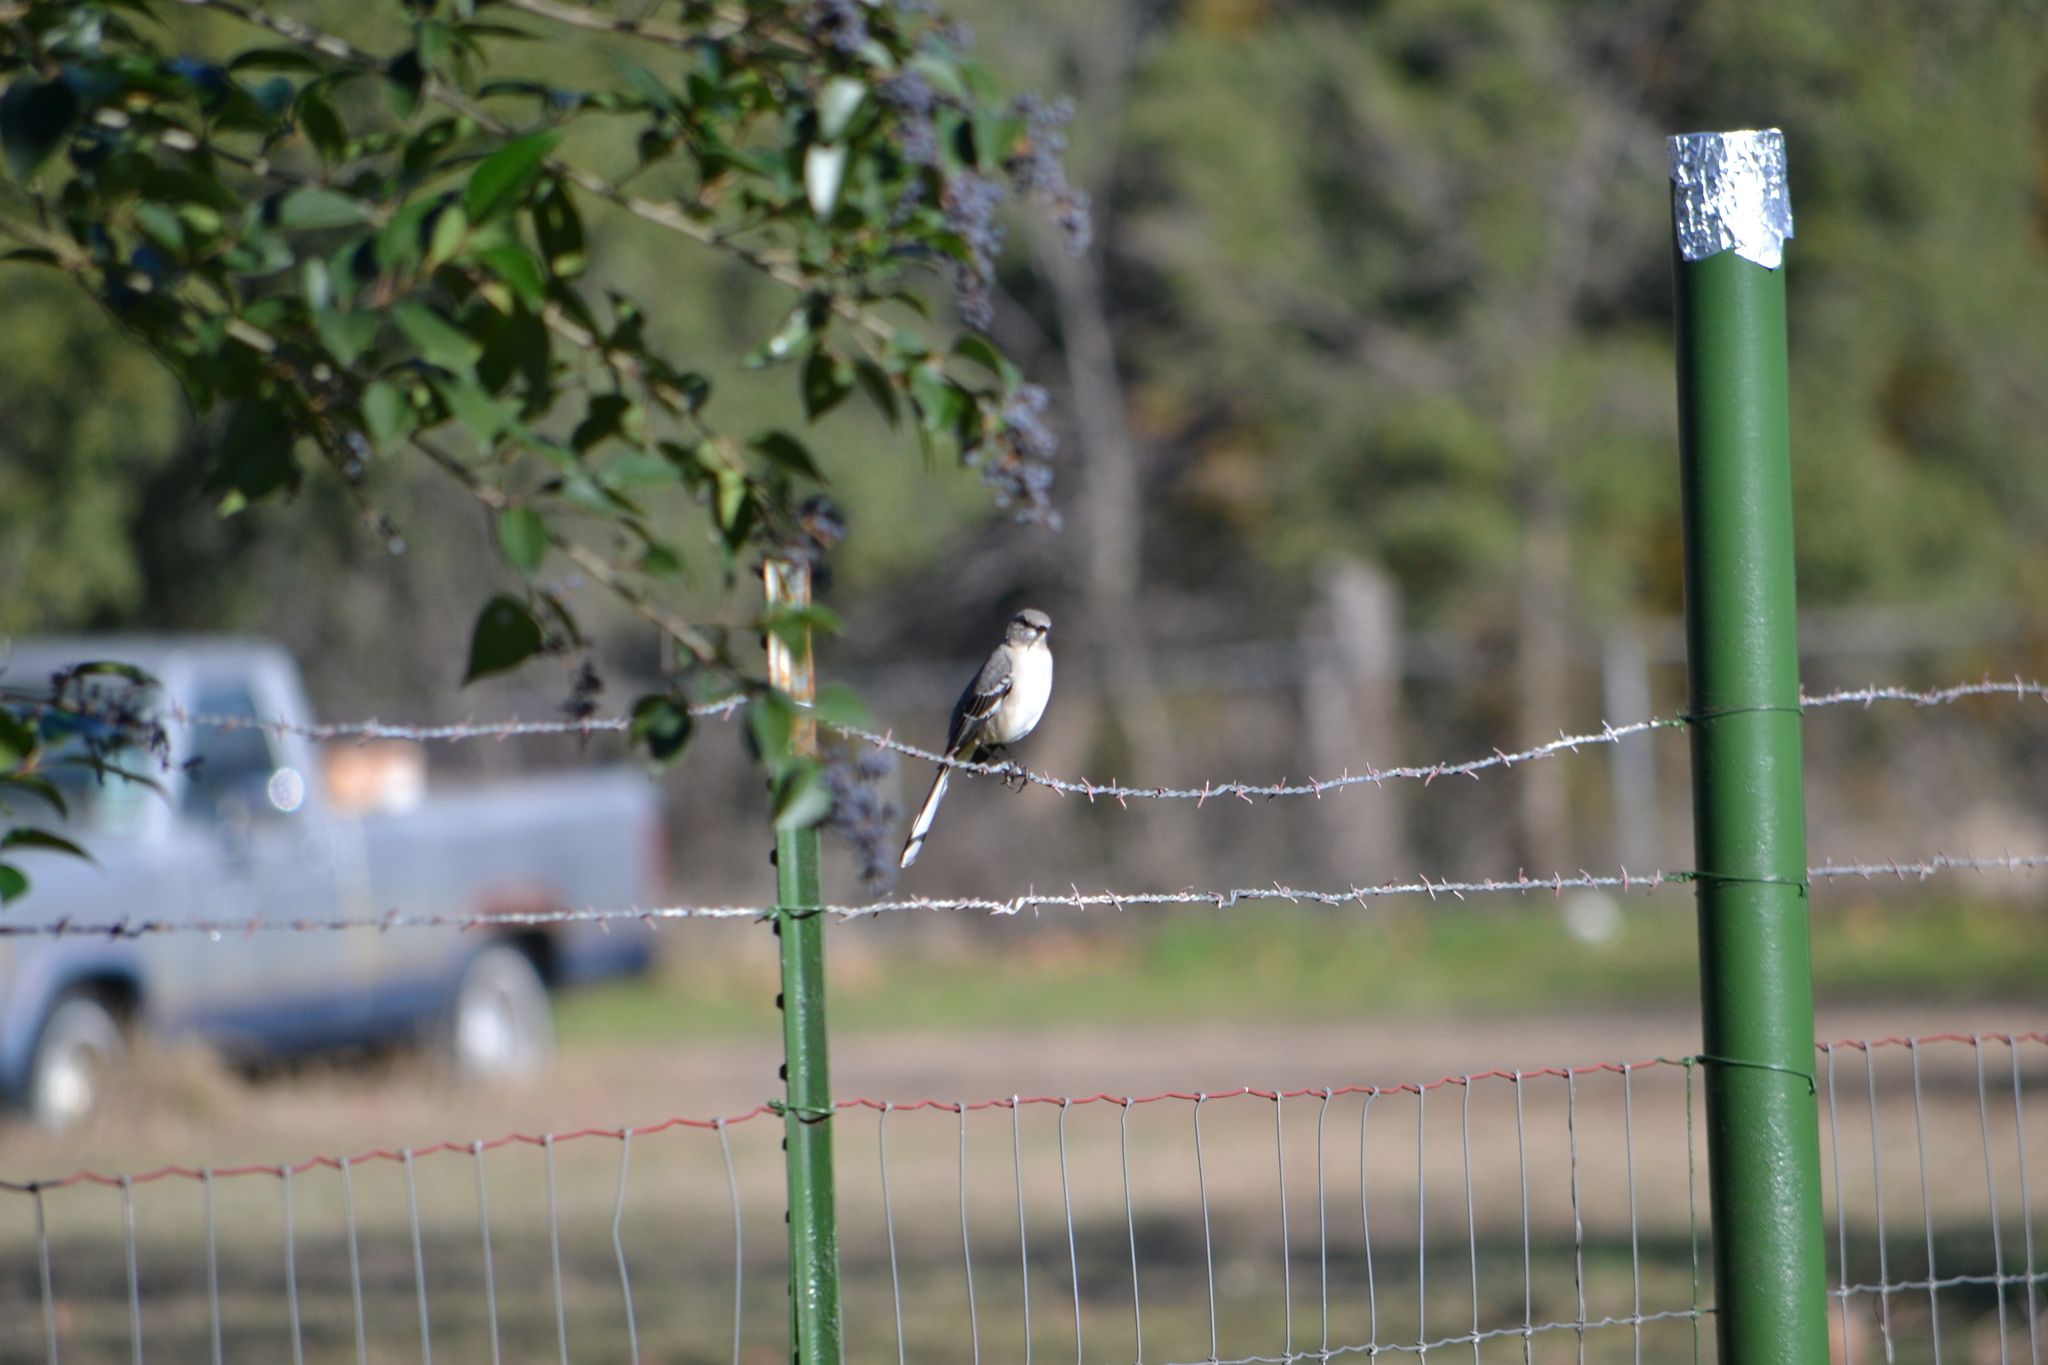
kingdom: Animalia
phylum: Chordata
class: Aves
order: Passeriformes
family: Mimidae
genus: Mimus
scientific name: Mimus polyglottos
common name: Northern mockingbird
